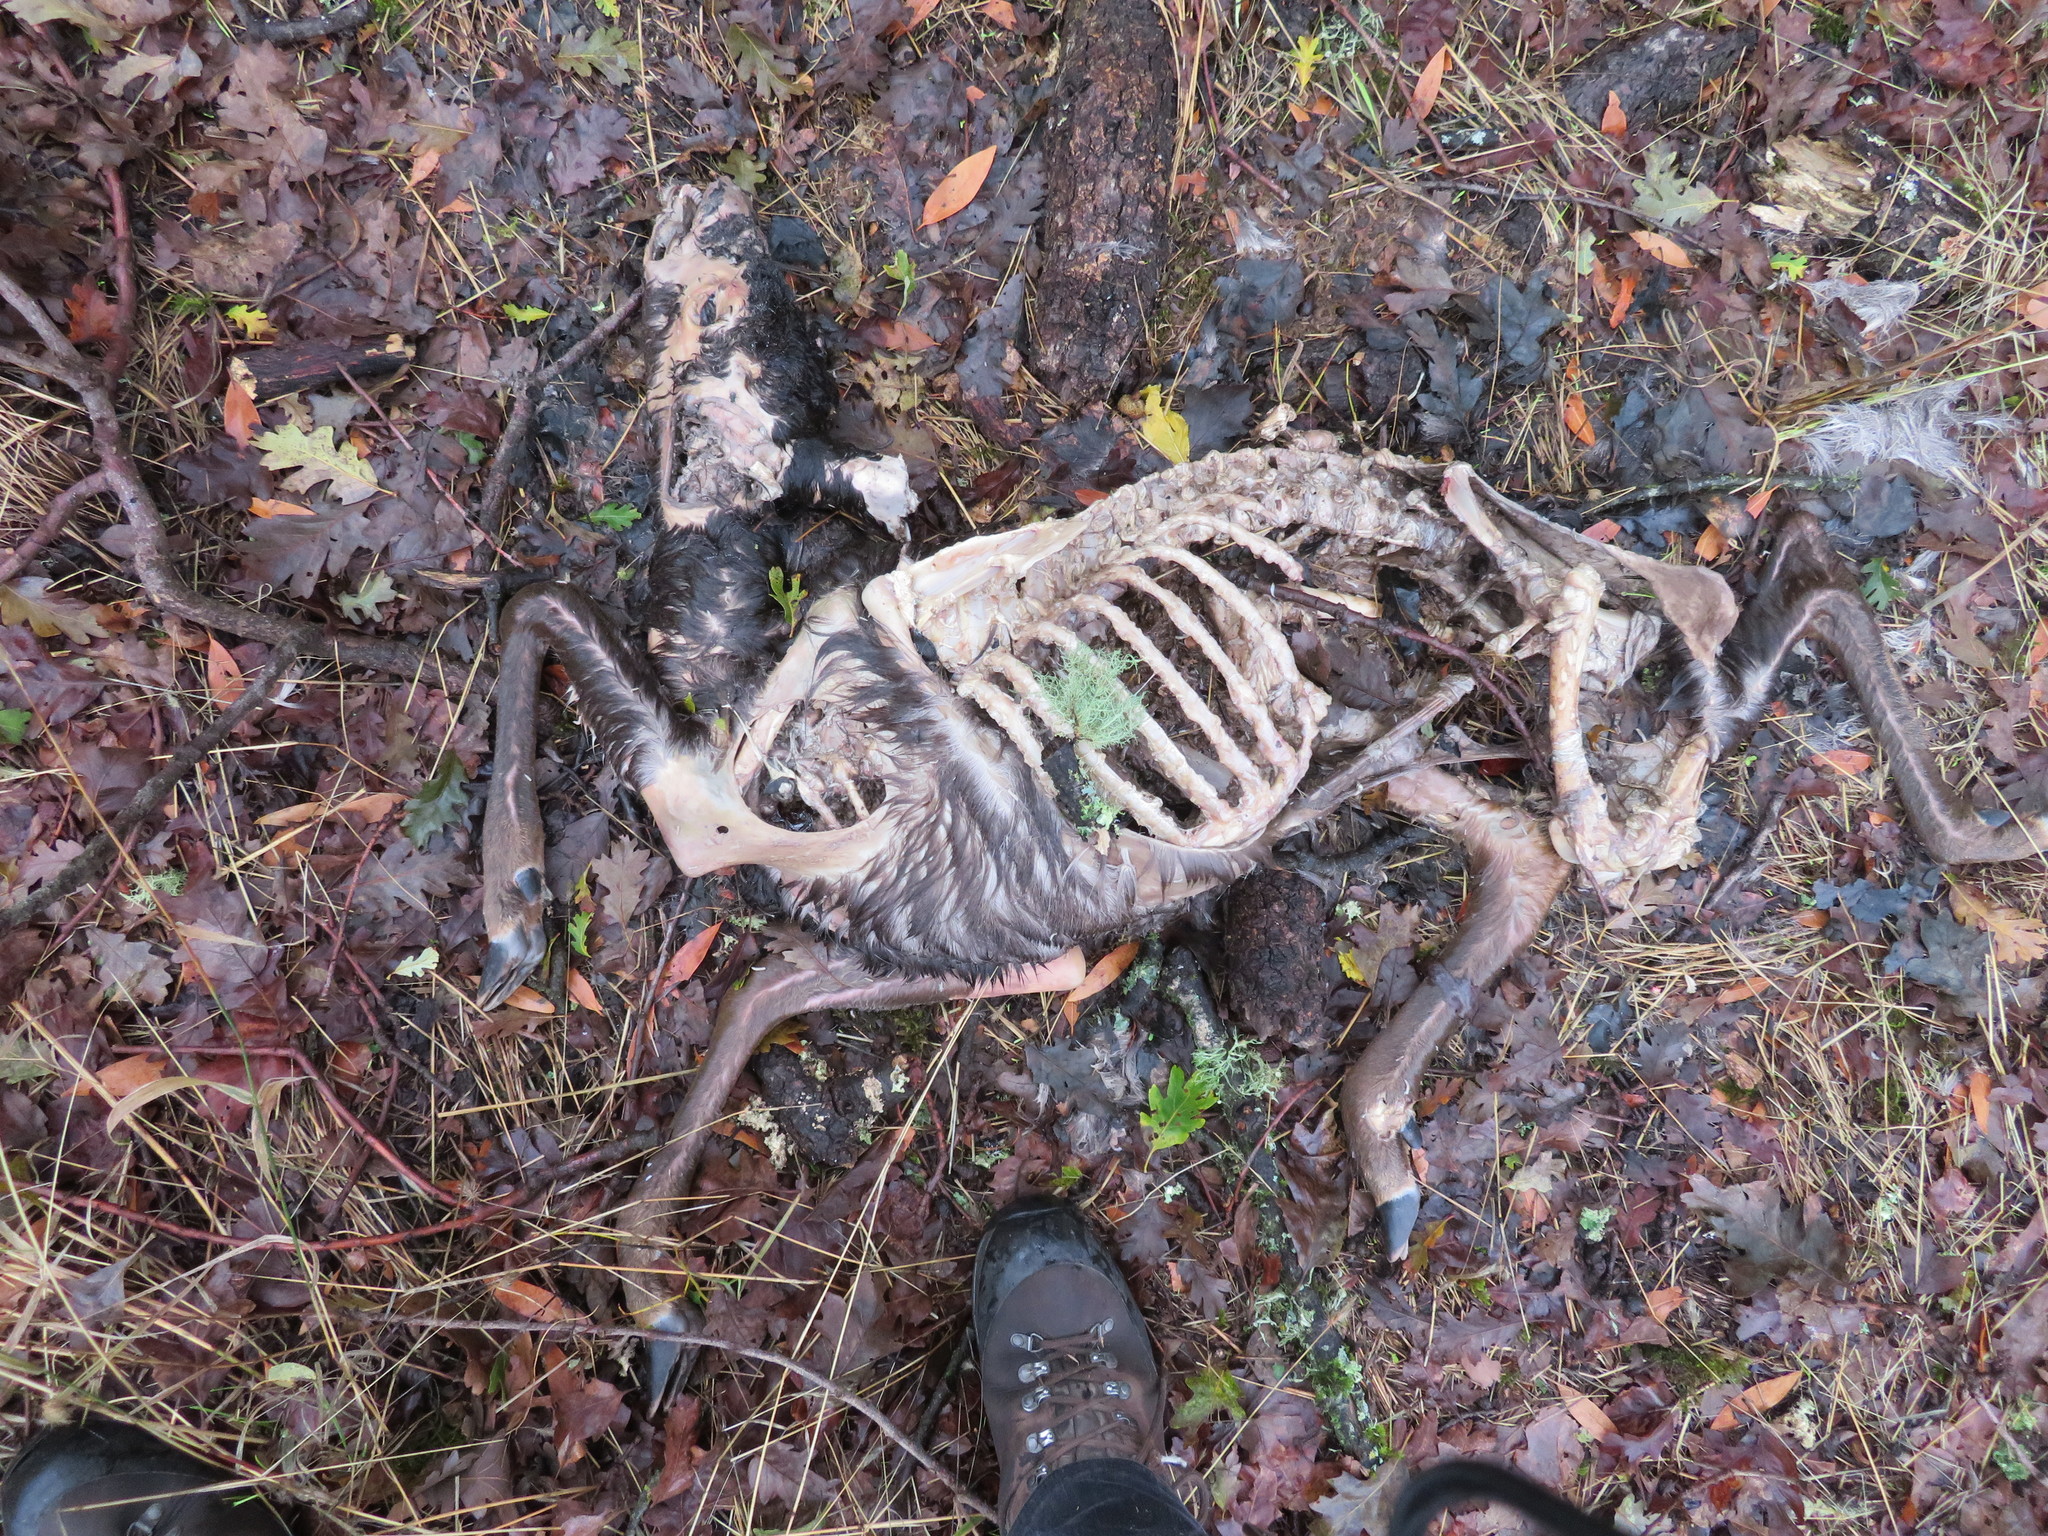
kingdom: Animalia
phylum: Chordata
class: Mammalia
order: Artiodactyla
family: Cervidae
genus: Odocoileus
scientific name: Odocoileus hemionus
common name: Mule deer
